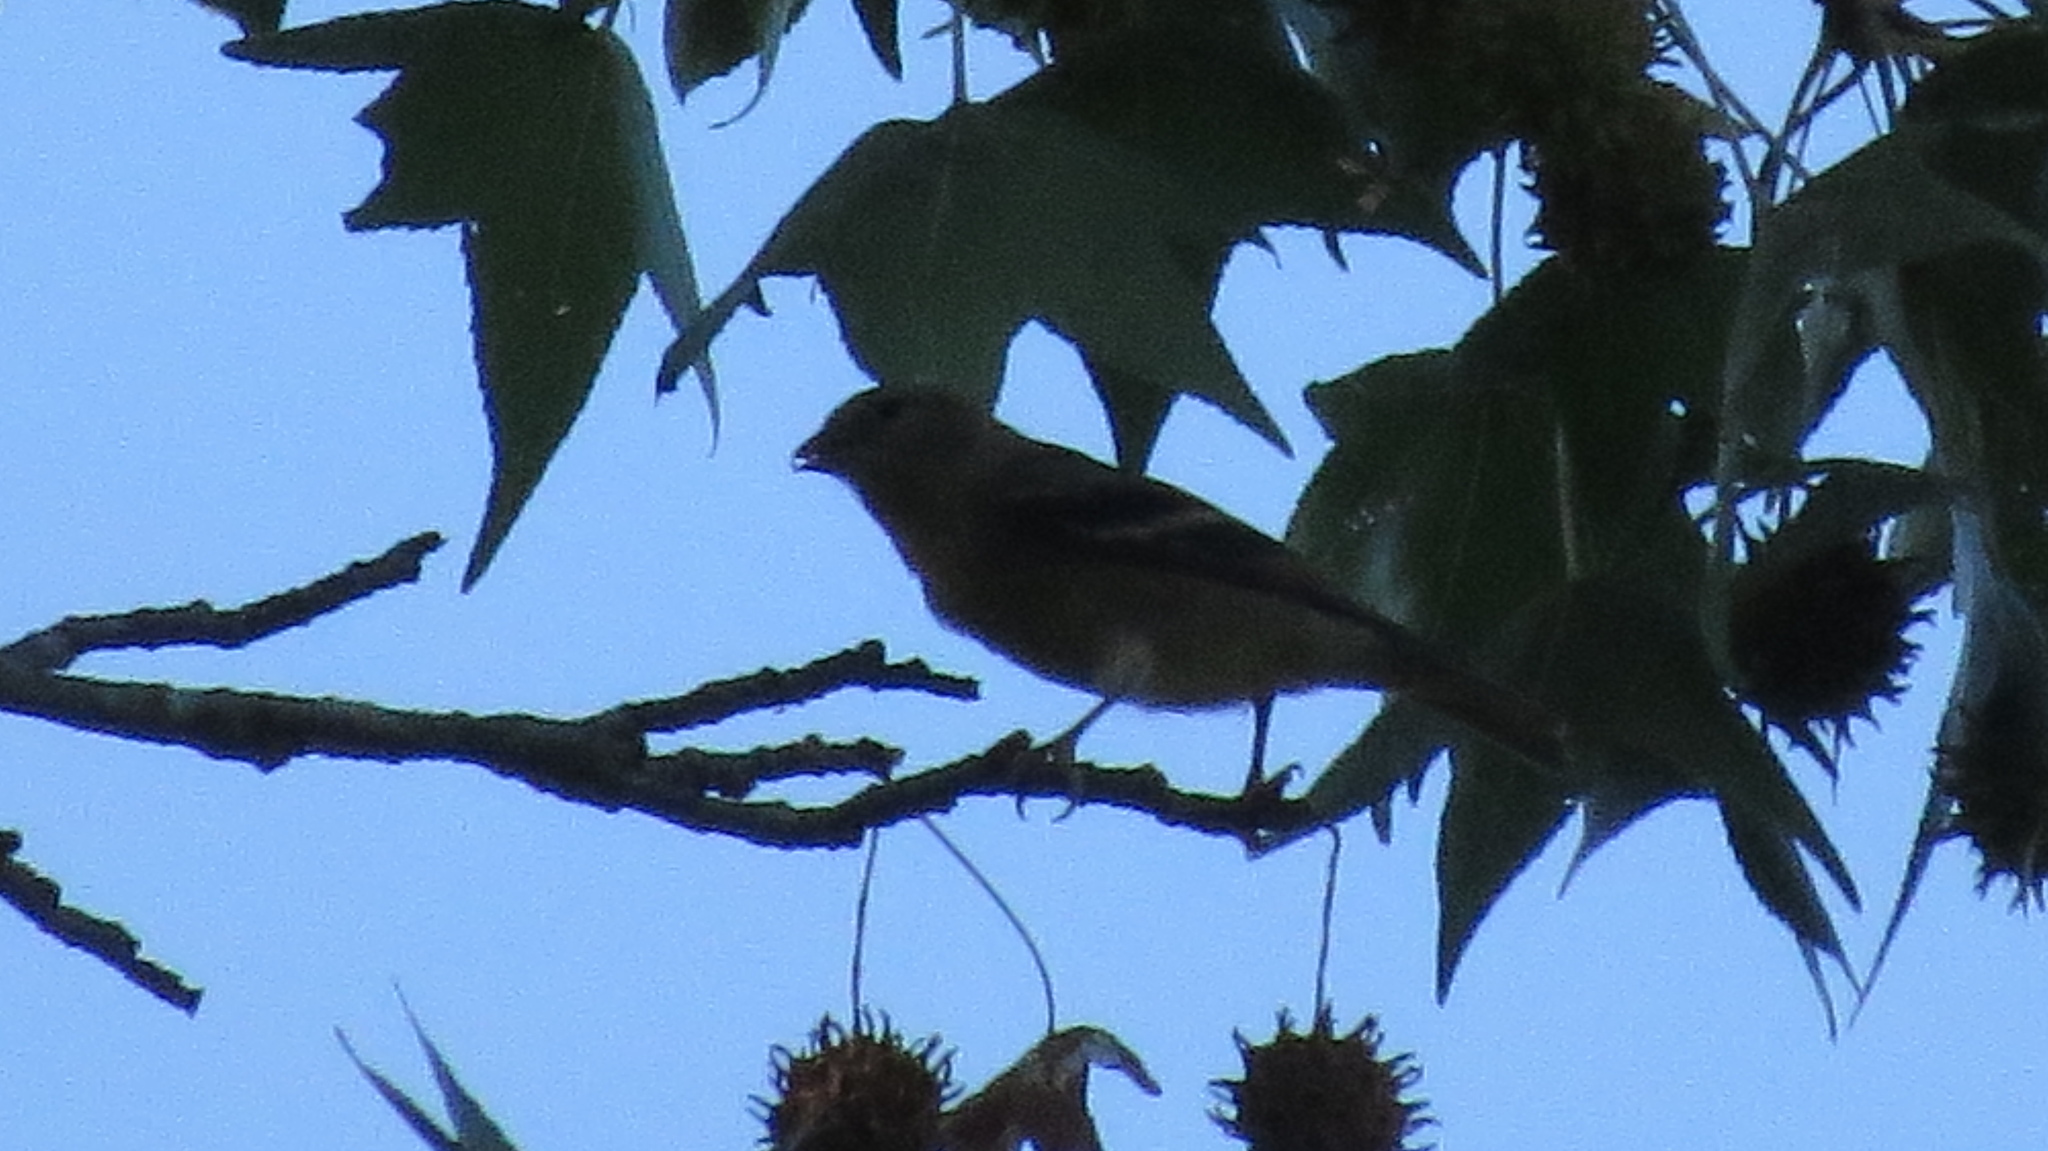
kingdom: Animalia
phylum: Chordata
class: Aves
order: Passeriformes
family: Fringillidae
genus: Spinus
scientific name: Spinus tristis
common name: American goldfinch
